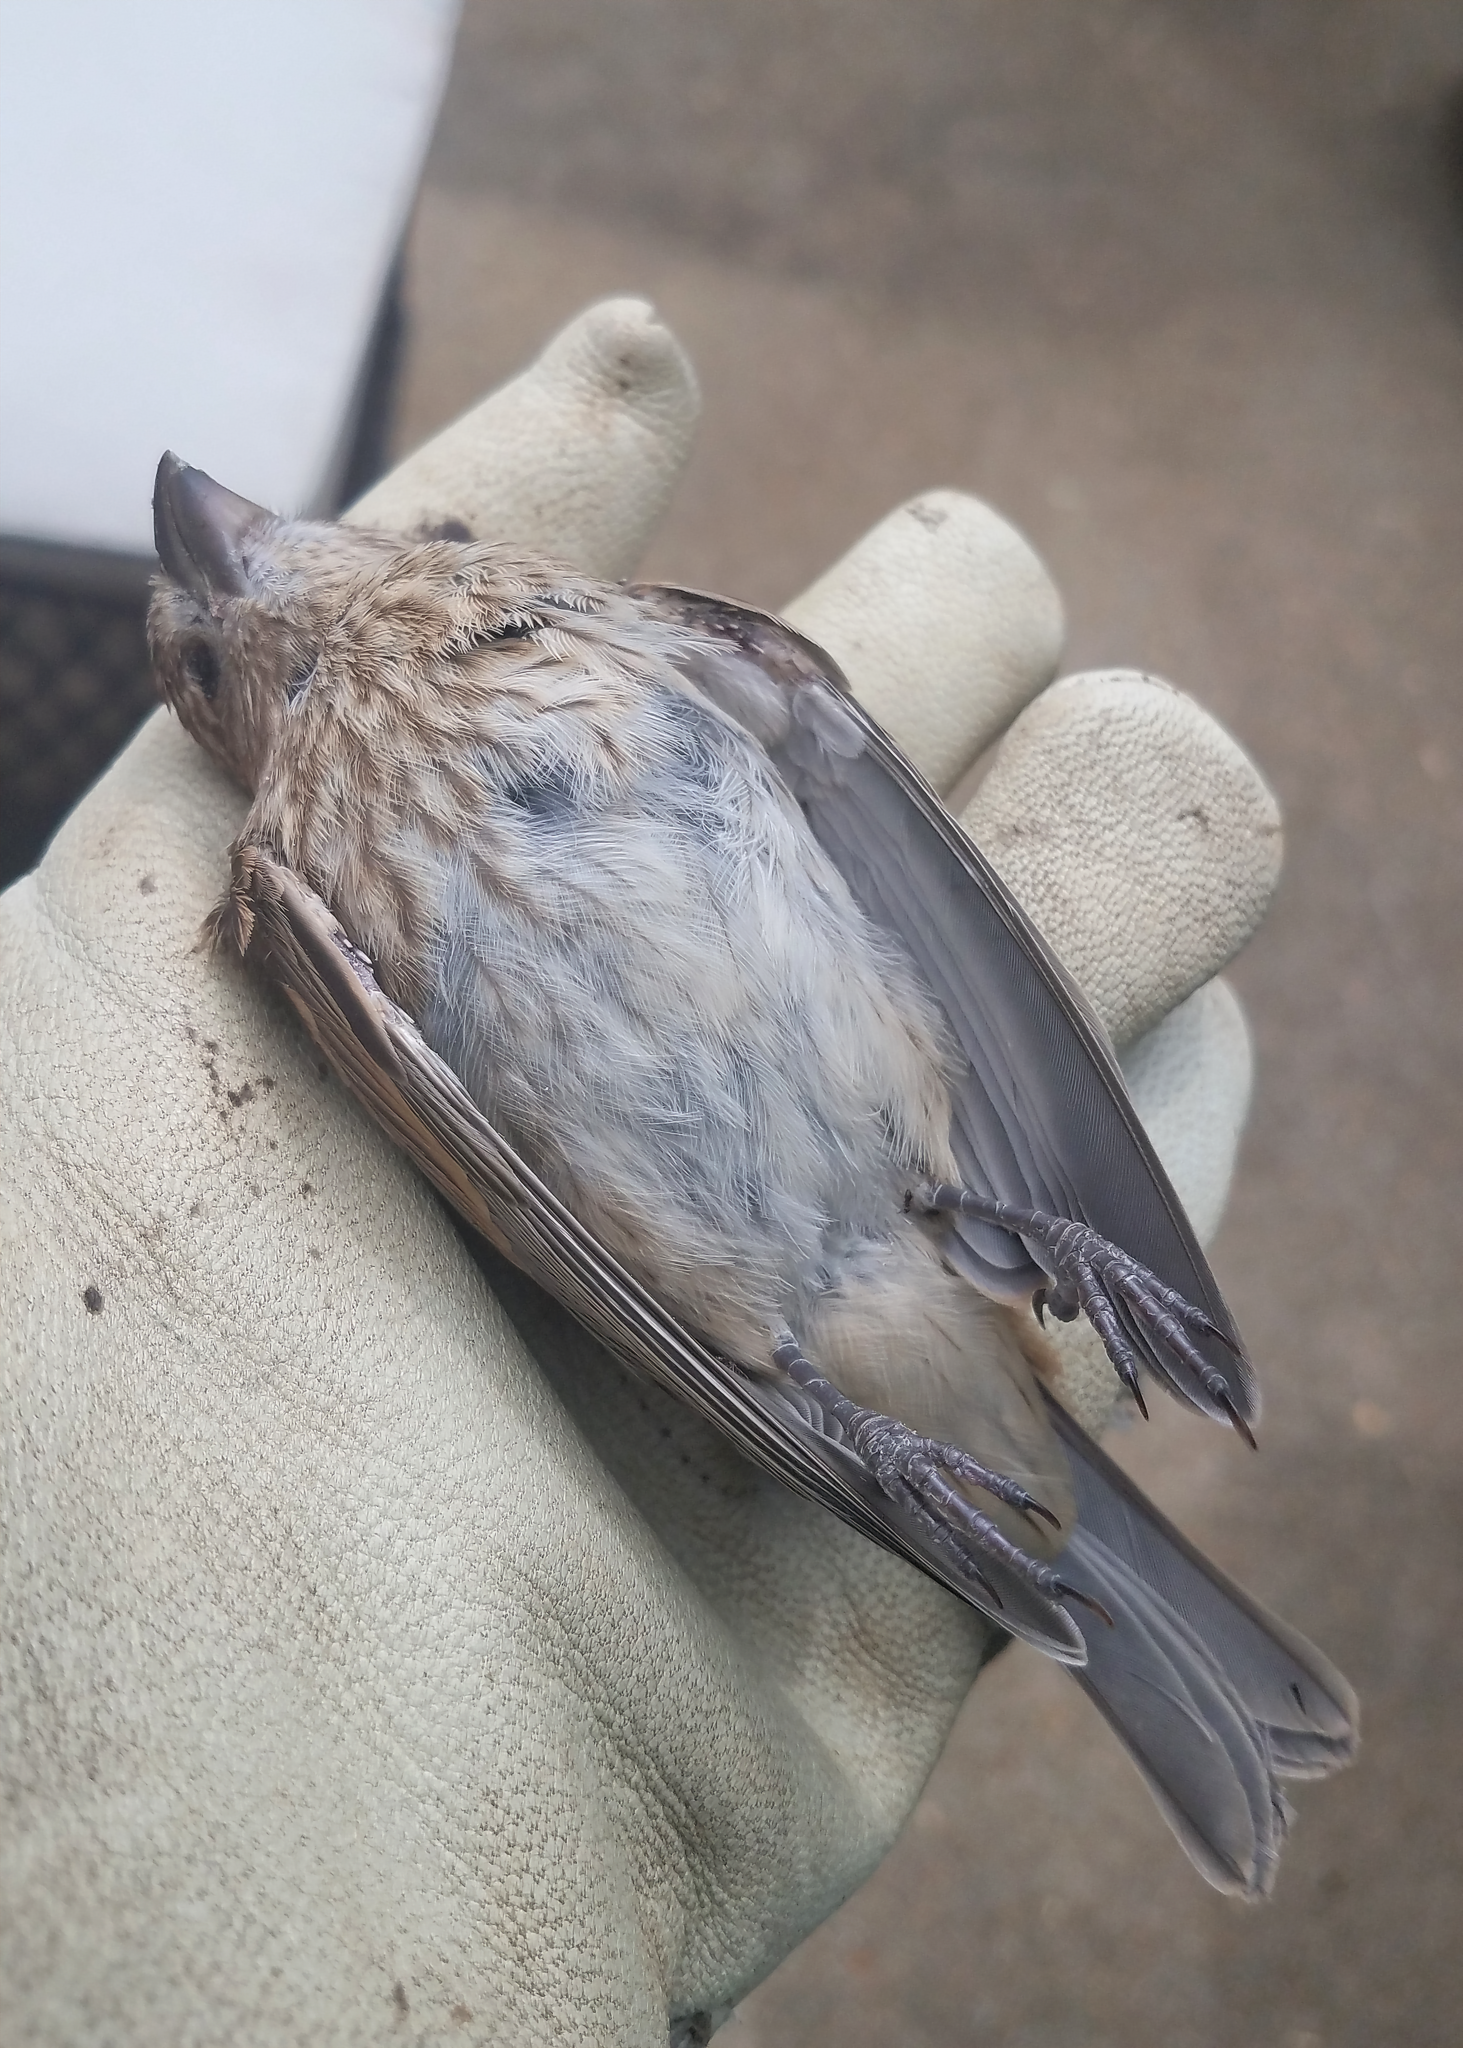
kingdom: Animalia
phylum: Chordata
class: Aves
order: Passeriformes
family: Cardinalidae
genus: Passerina
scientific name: Passerina cyanea
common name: Indigo bunting
